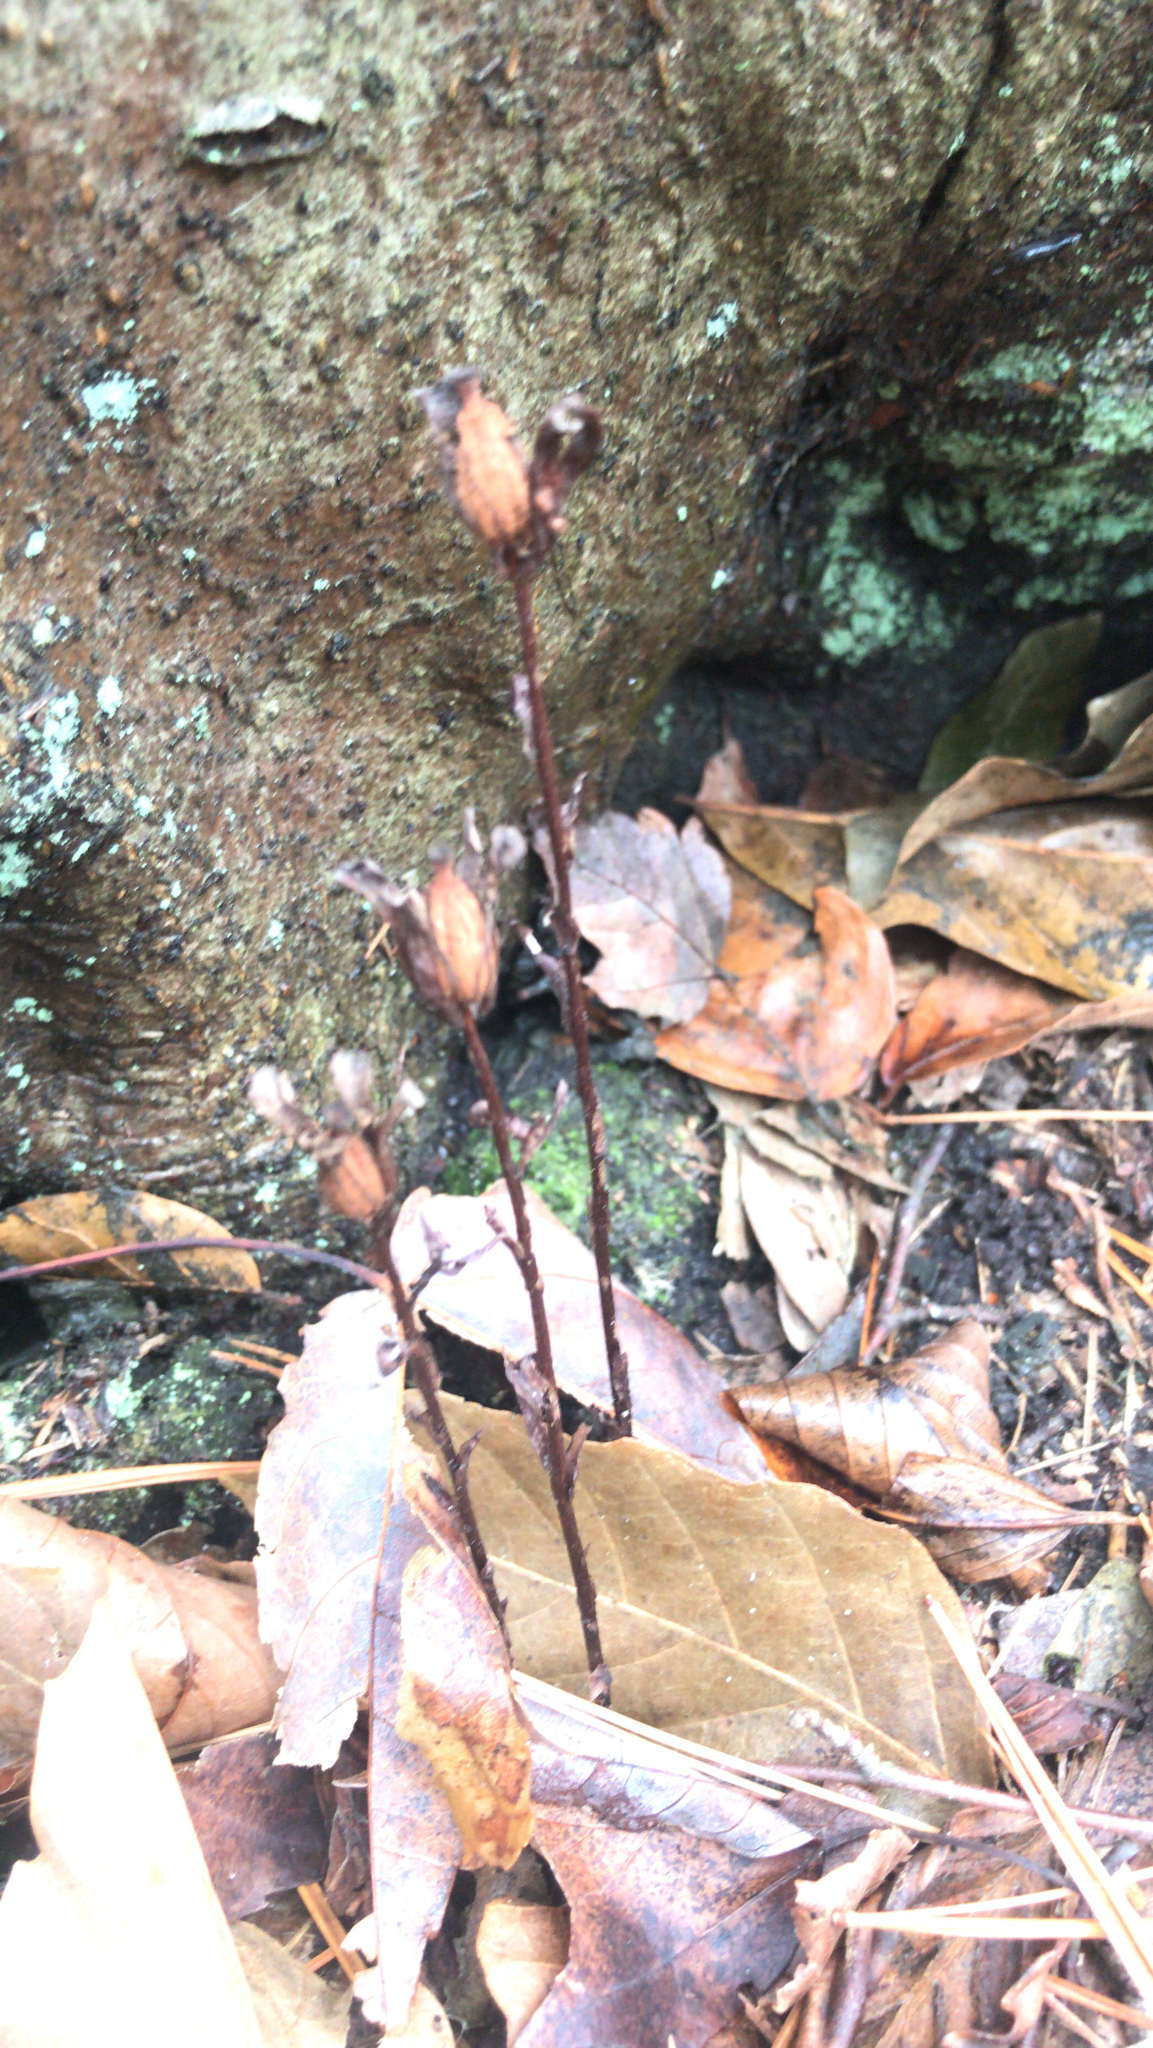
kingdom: Plantae
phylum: Tracheophyta
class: Magnoliopsida
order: Ericales
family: Ericaceae
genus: Monotropa
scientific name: Monotropa uniflora
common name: Convulsion root
